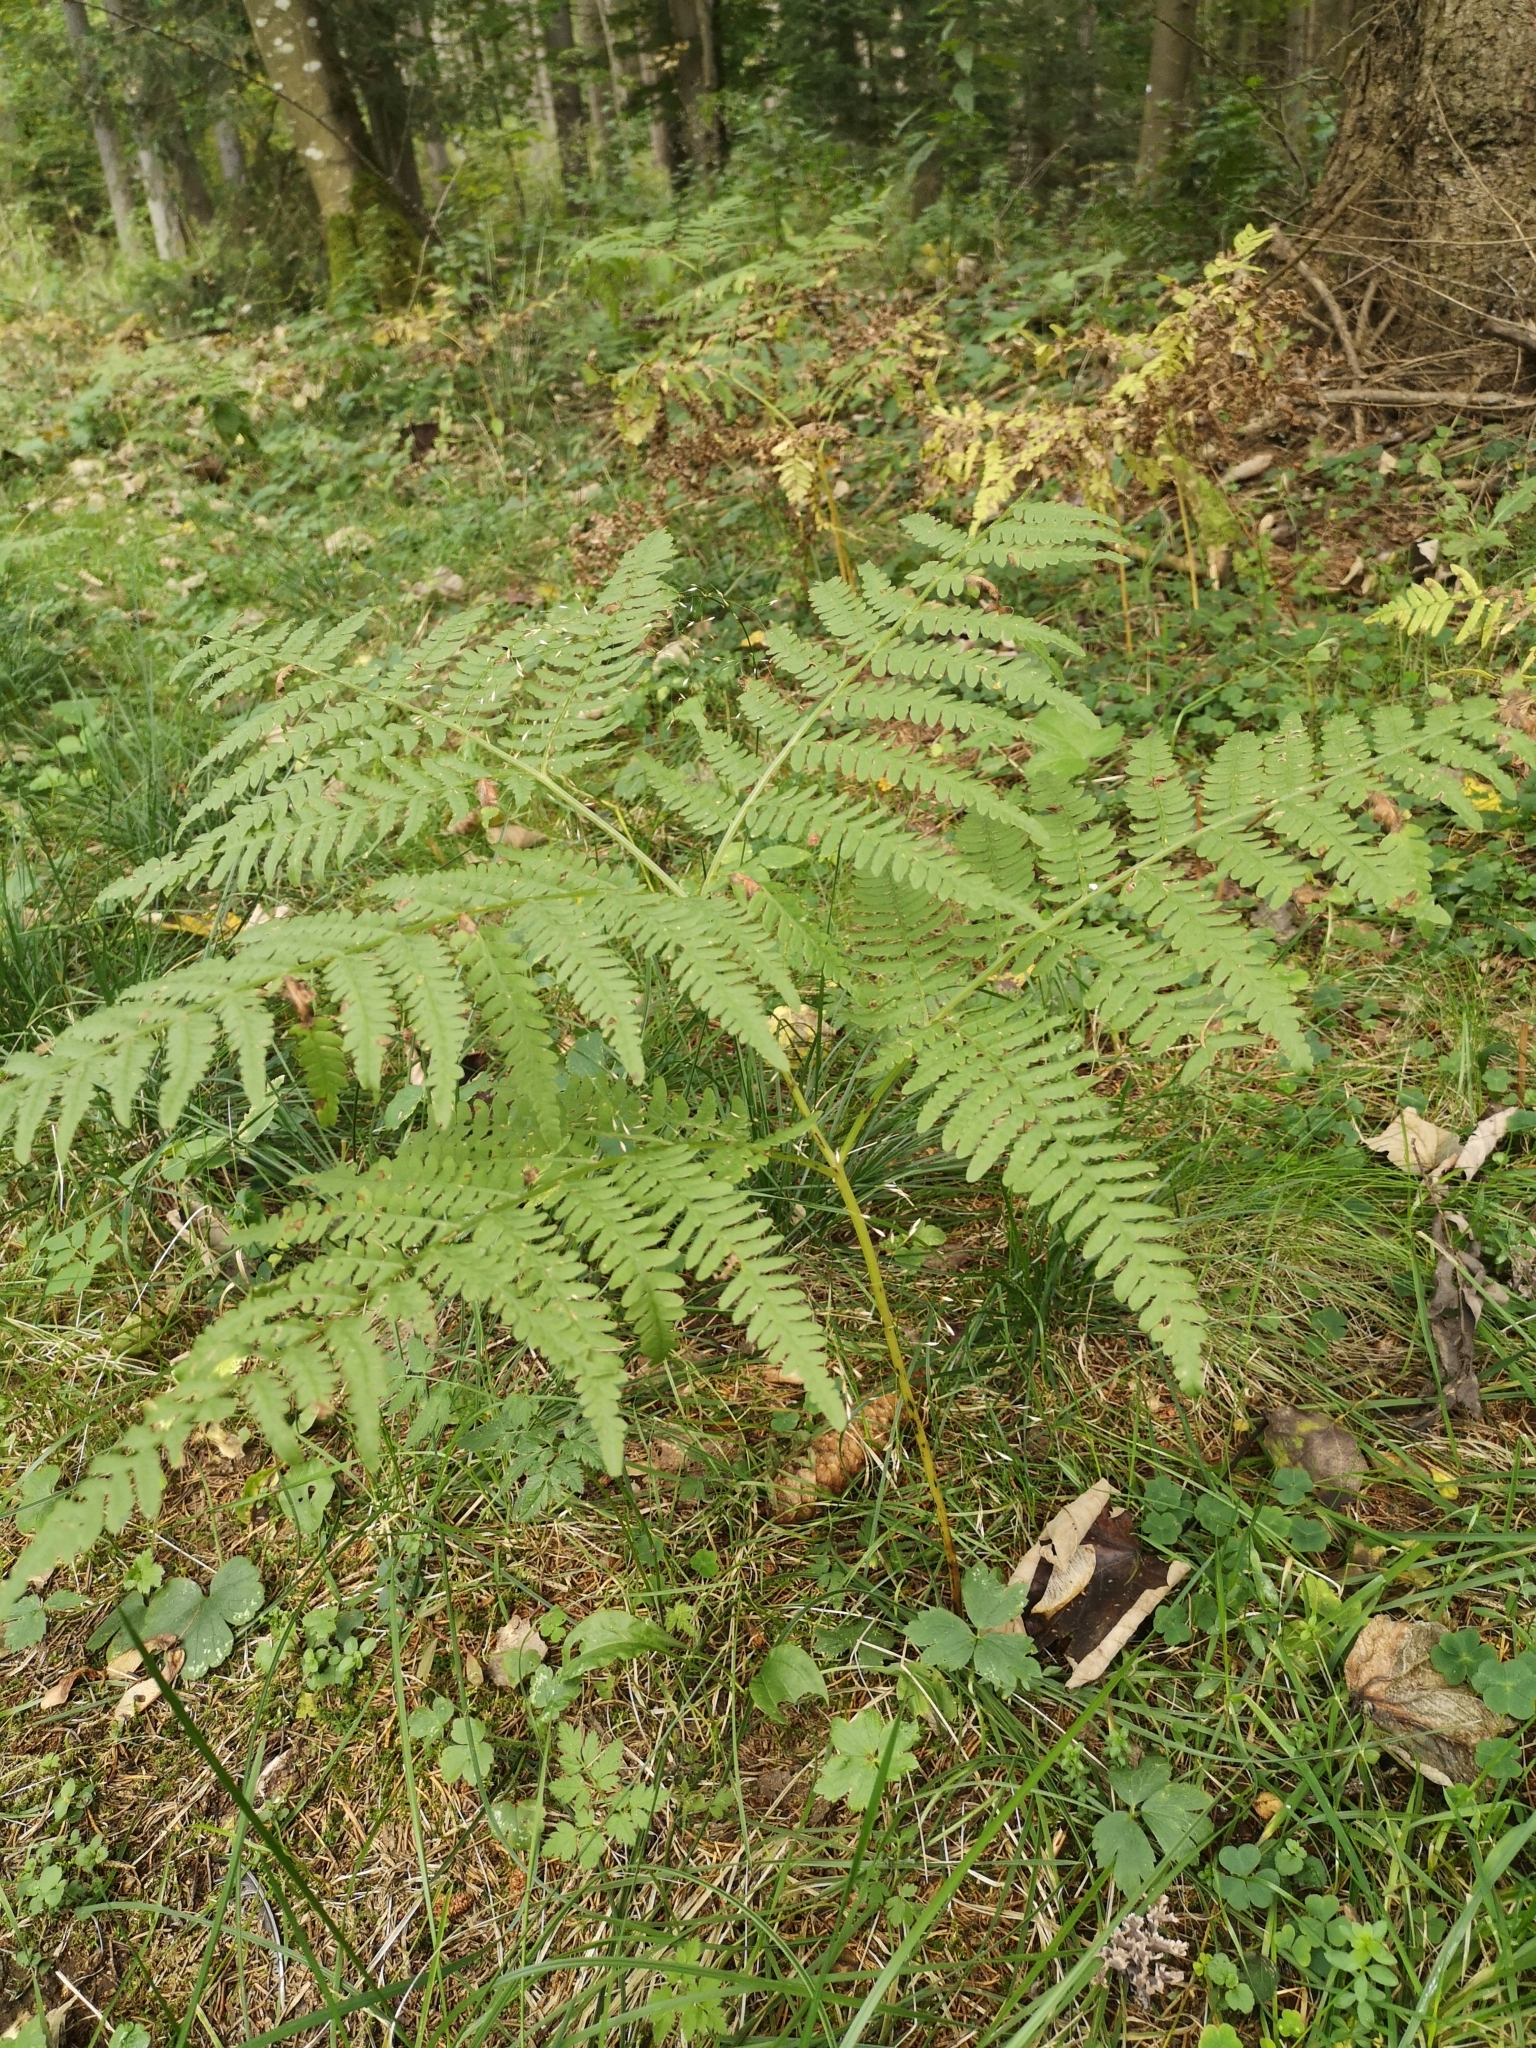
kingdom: Plantae
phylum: Tracheophyta
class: Polypodiopsida
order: Polypodiales
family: Dennstaedtiaceae
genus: Pteridium
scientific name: Pteridium aquilinum
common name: Bracken
